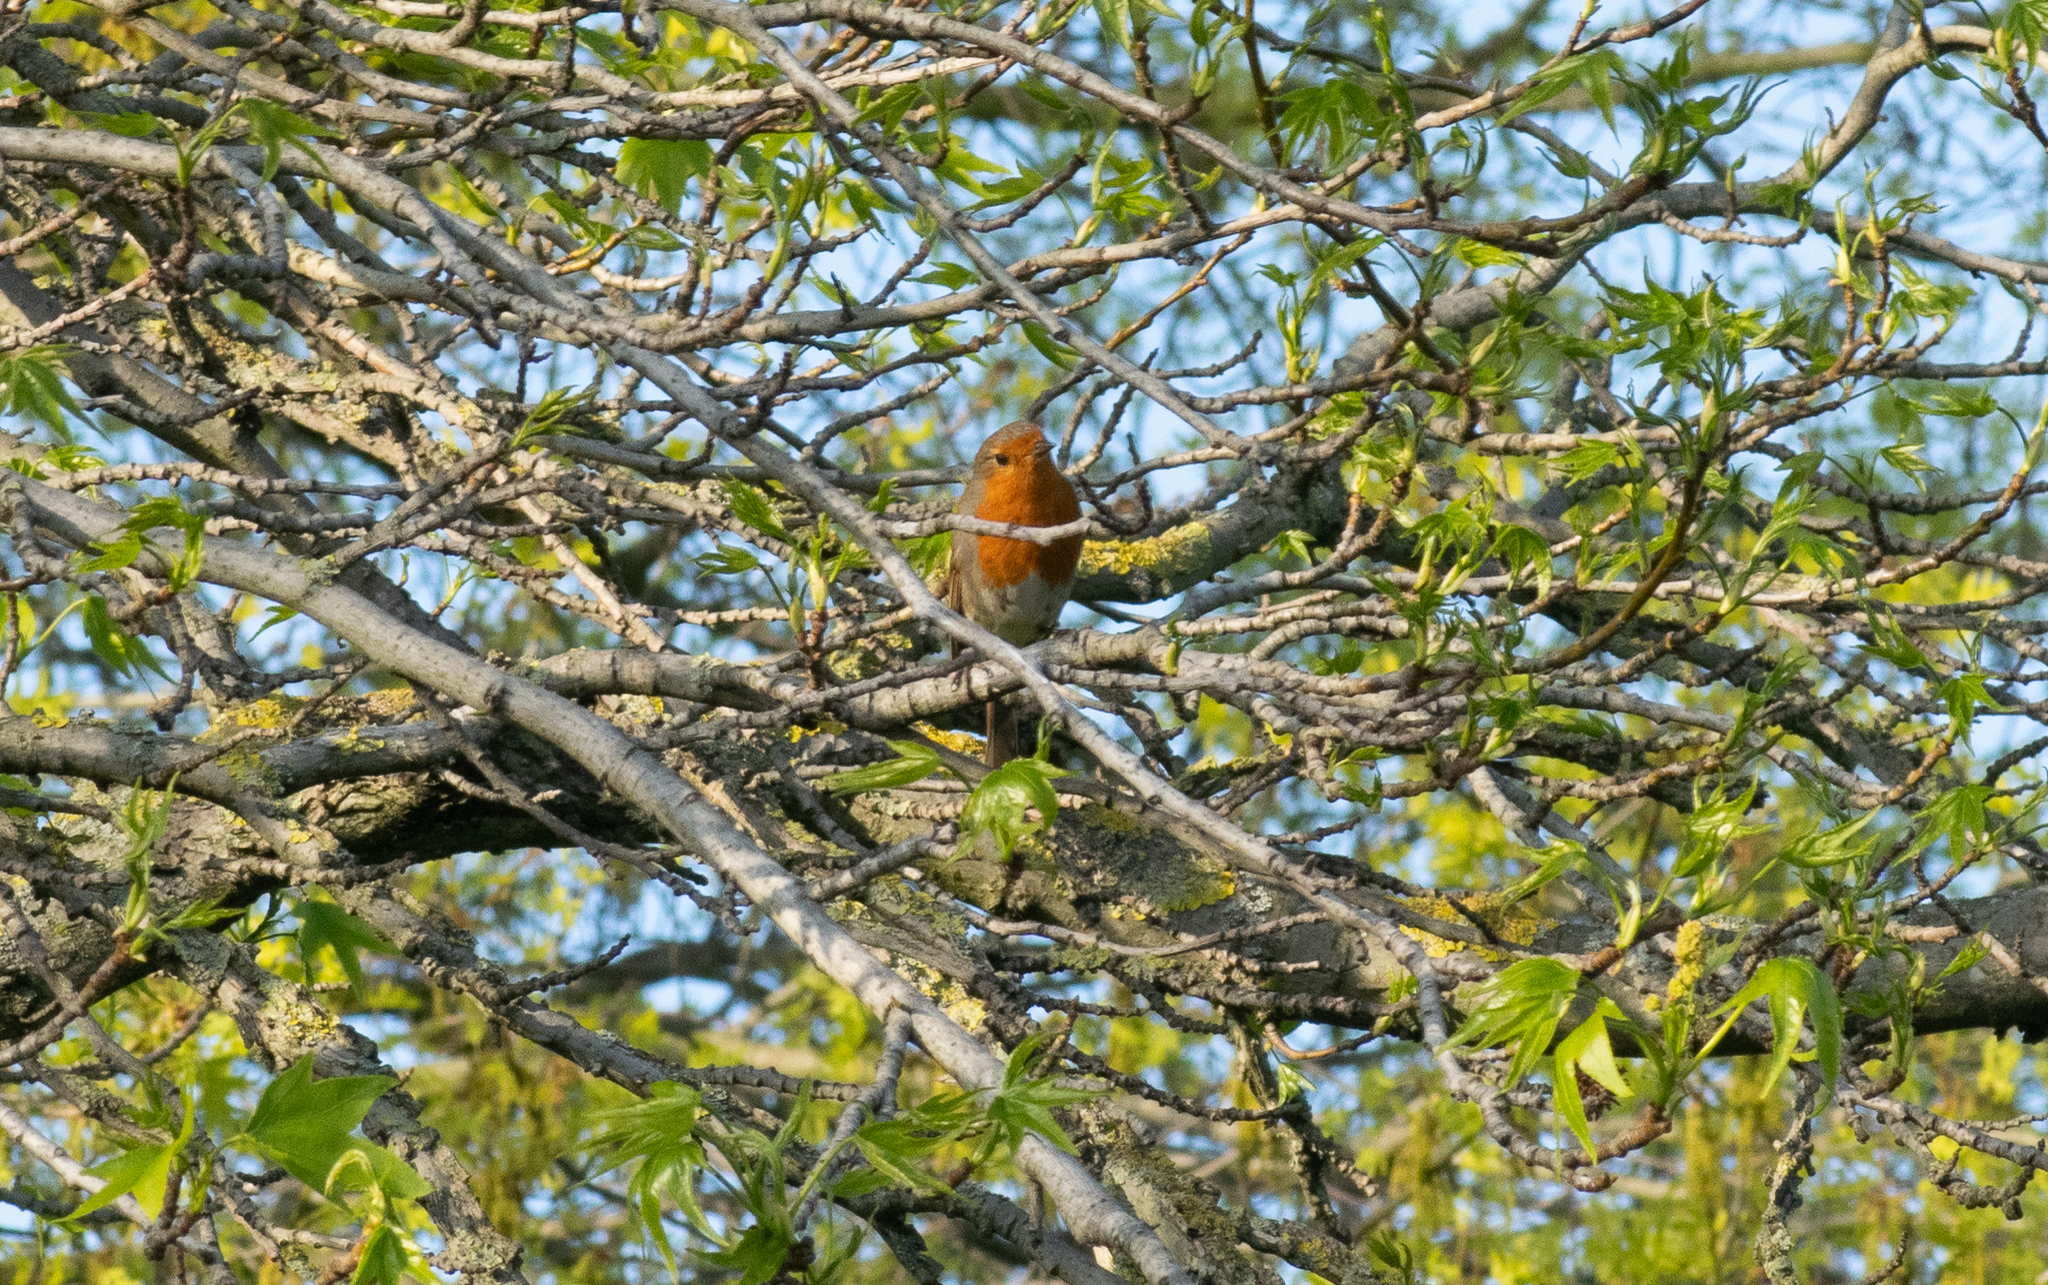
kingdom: Animalia
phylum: Chordata
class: Aves
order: Passeriformes
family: Muscicapidae
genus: Erithacus
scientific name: Erithacus rubecula
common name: European robin
